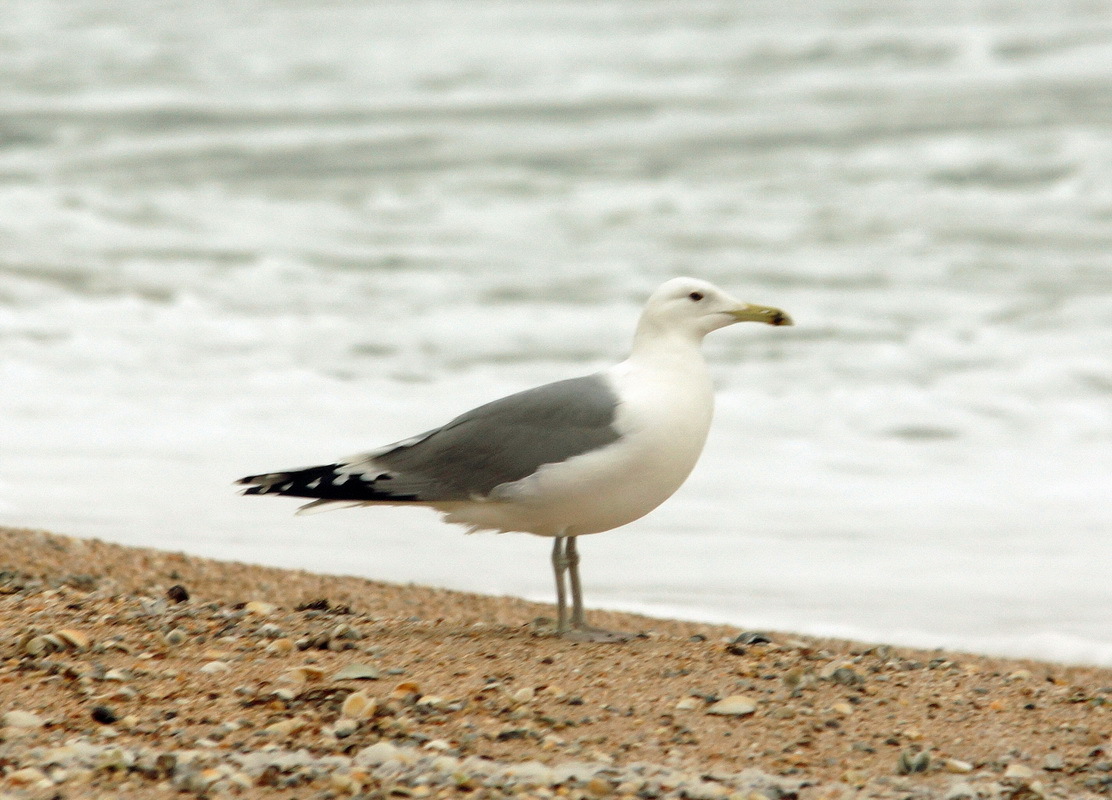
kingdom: Animalia
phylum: Chordata
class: Aves
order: Charadriiformes
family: Laridae
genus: Larus
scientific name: Larus cachinnans
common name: Caspian gull
